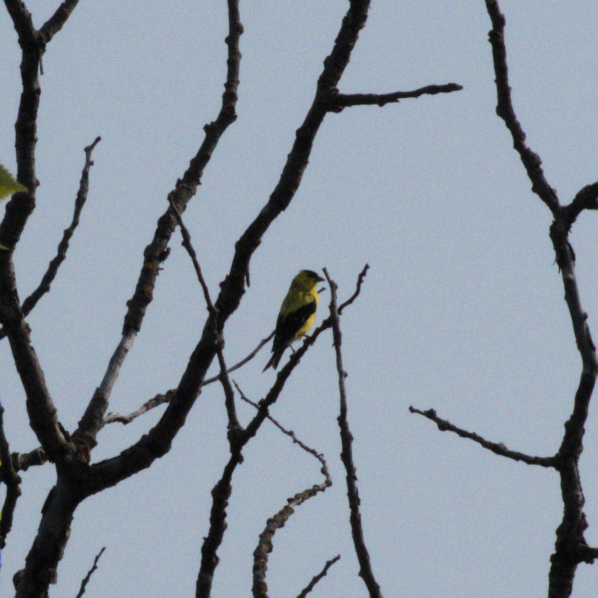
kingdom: Animalia
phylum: Chordata
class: Aves
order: Passeriformes
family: Fringillidae
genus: Spinus
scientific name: Spinus tristis
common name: American goldfinch
